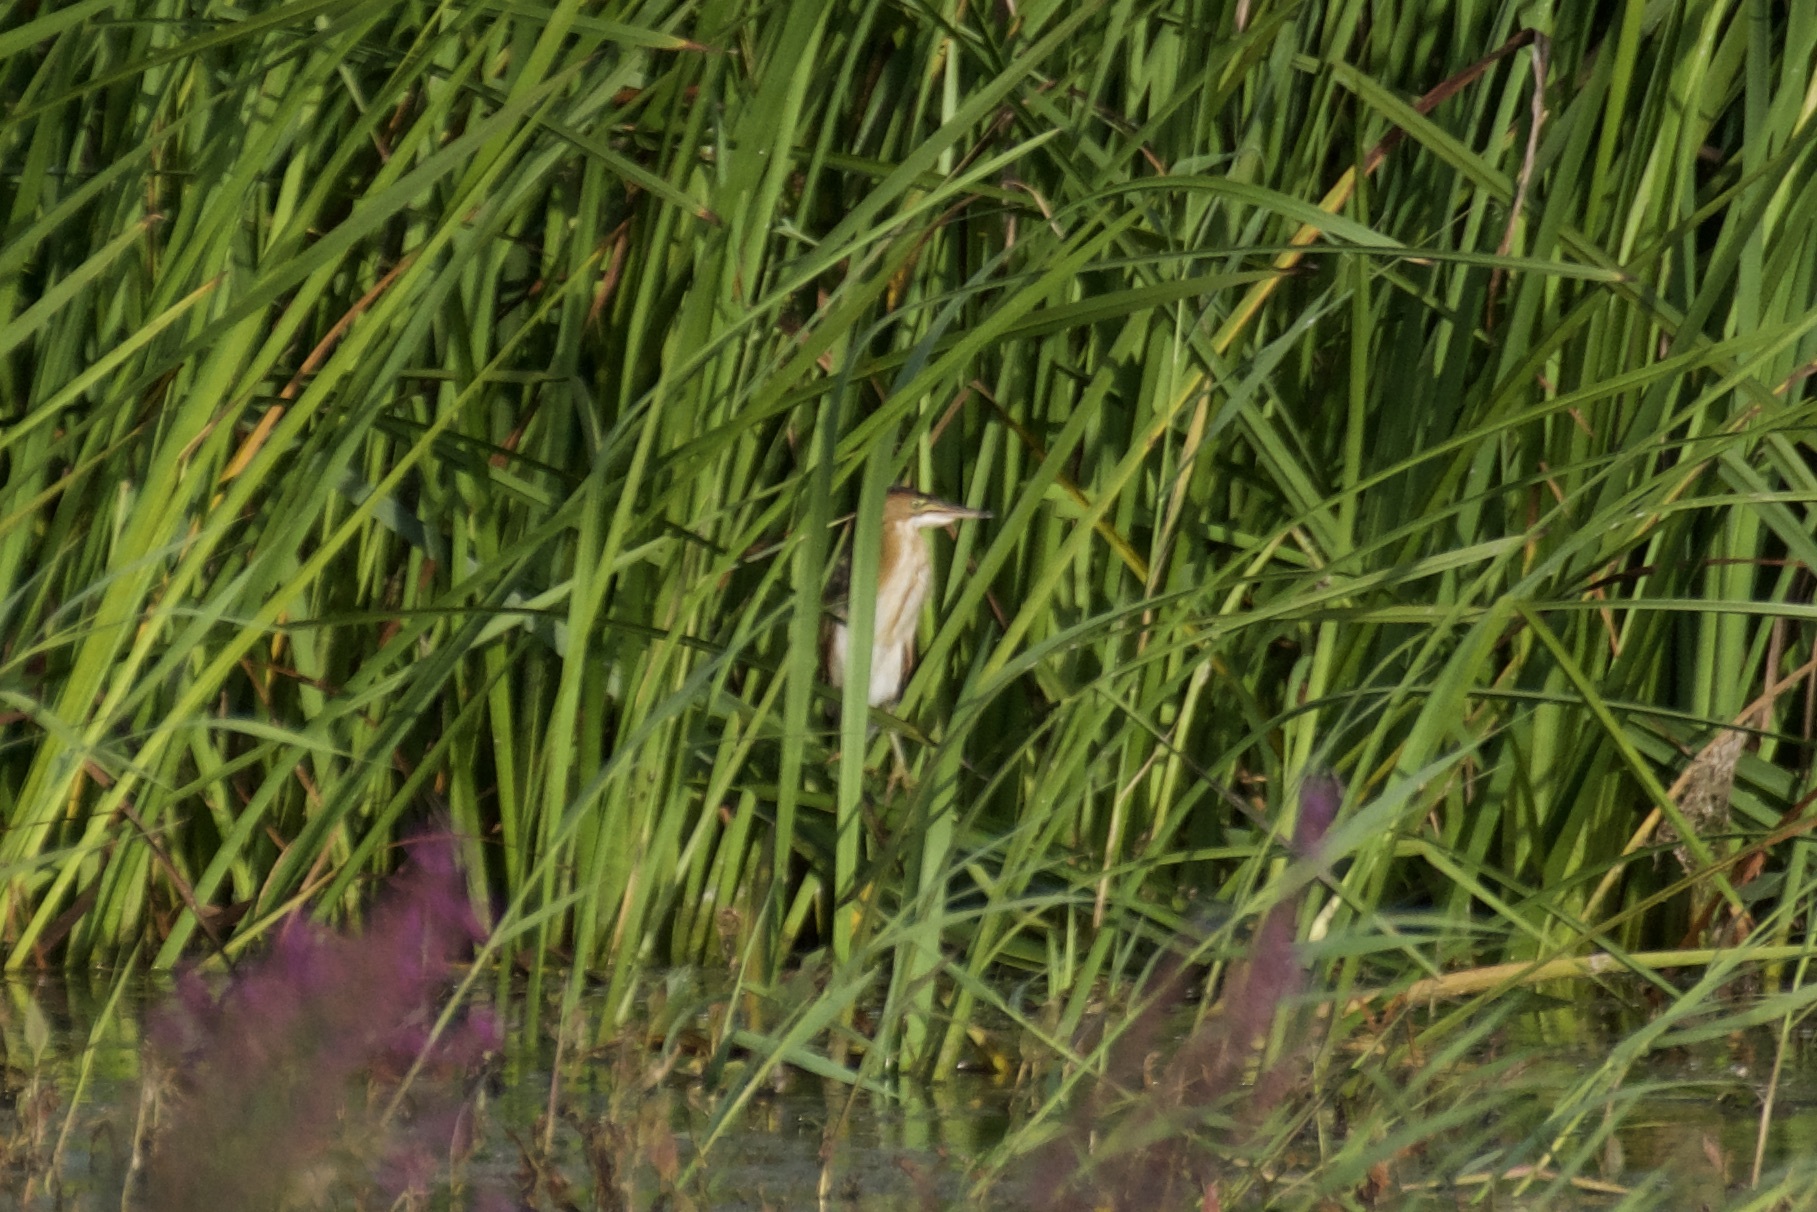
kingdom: Animalia
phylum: Chordata
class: Aves
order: Pelecaniformes
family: Ardeidae
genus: Ixobrychus
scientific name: Ixobrychus exilis
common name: Least bittern
